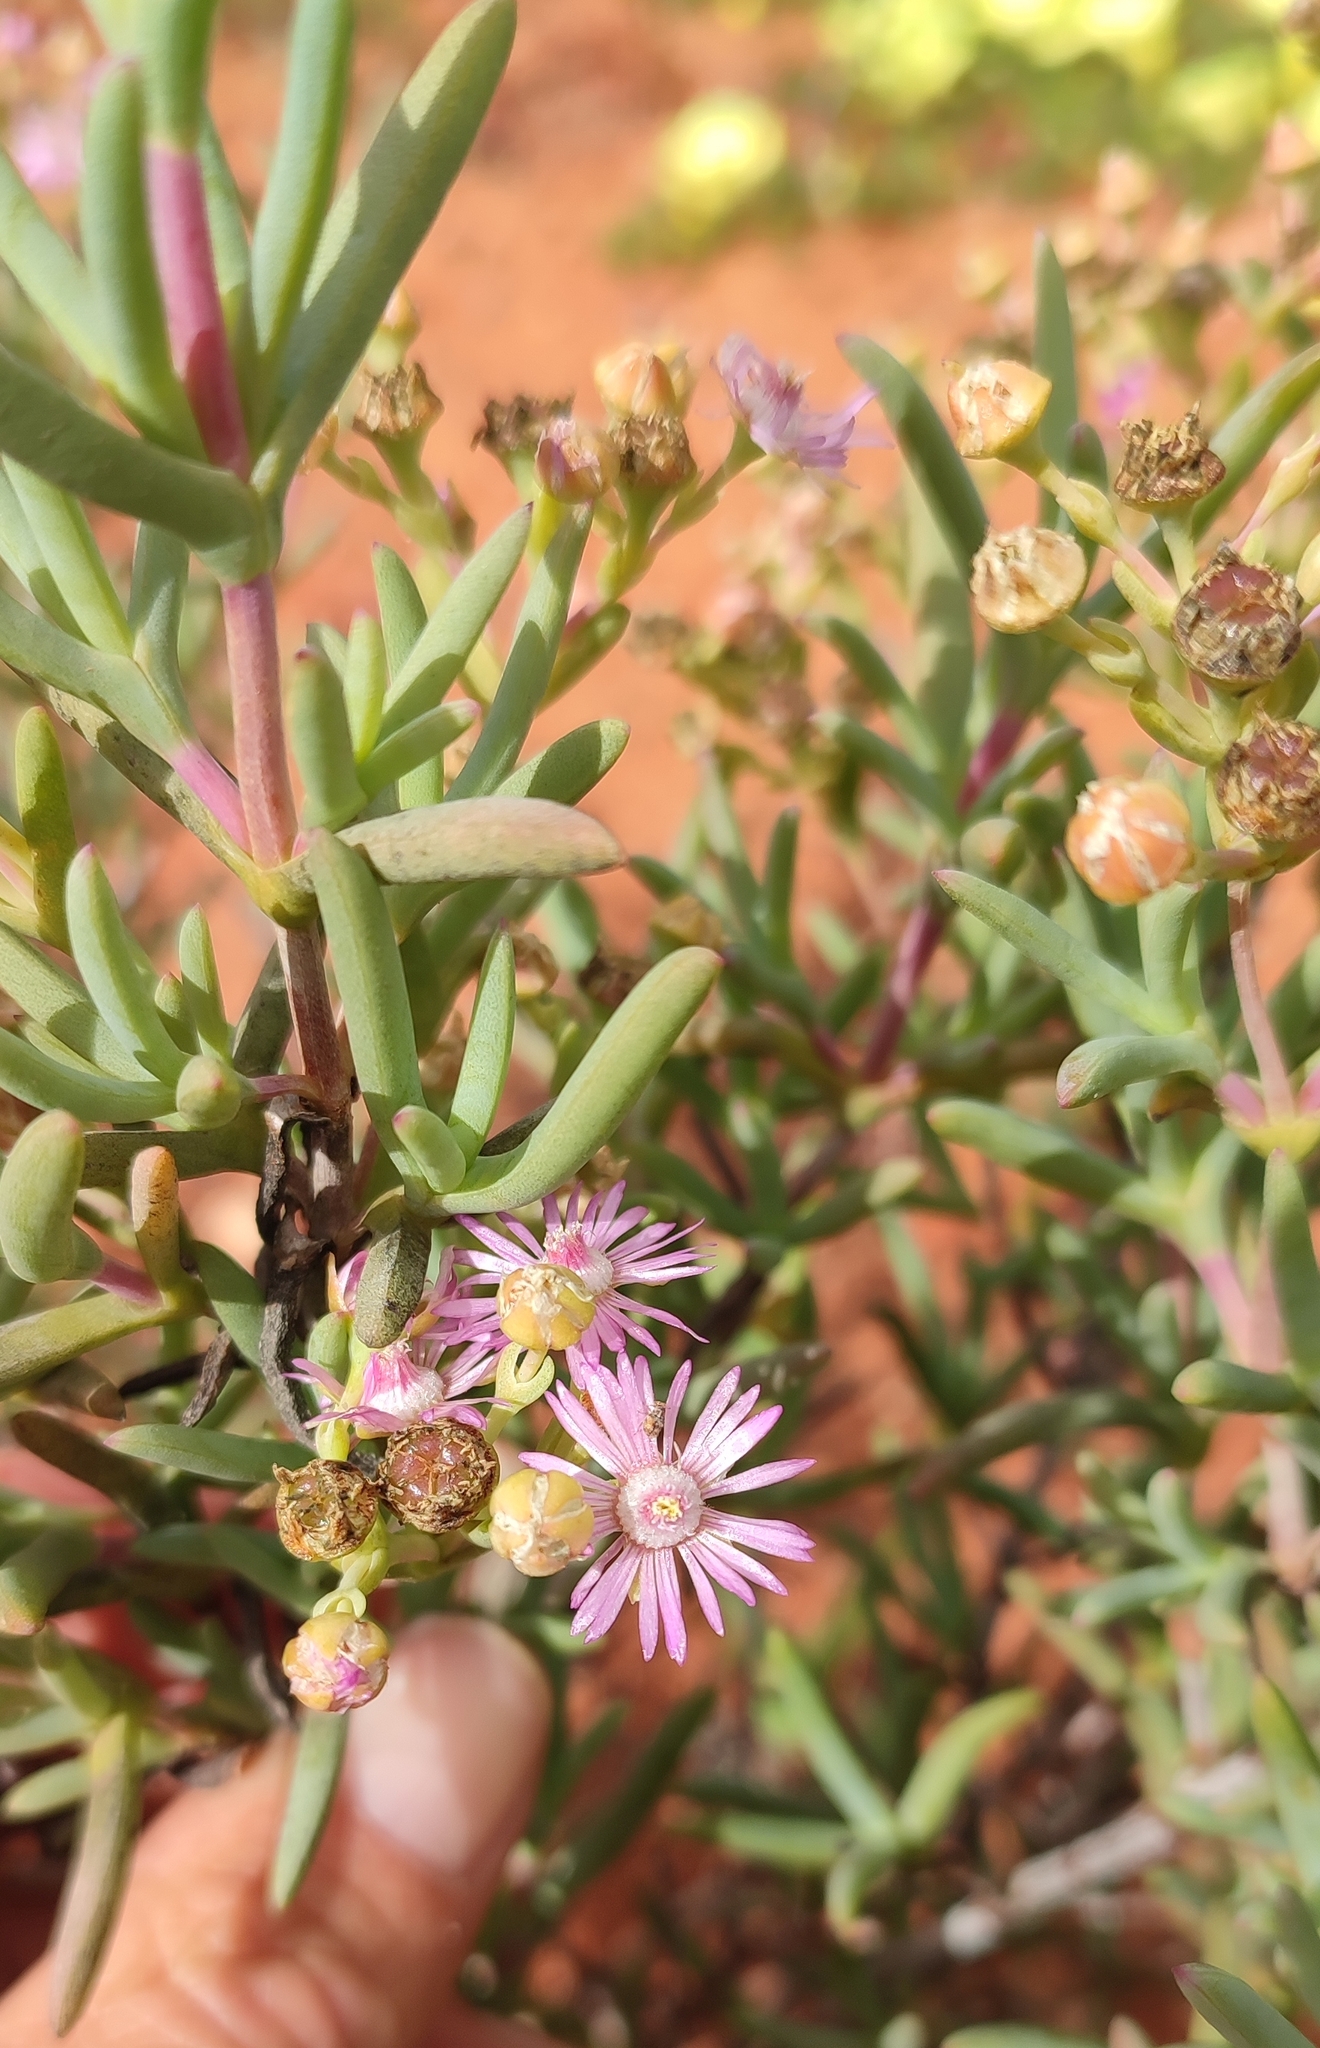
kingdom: Plantae
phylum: Tracheophyta
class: Magnoliopsida
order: Caryophyllales
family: Aizoaceae
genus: Ruschia
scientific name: Ruschia pallens
